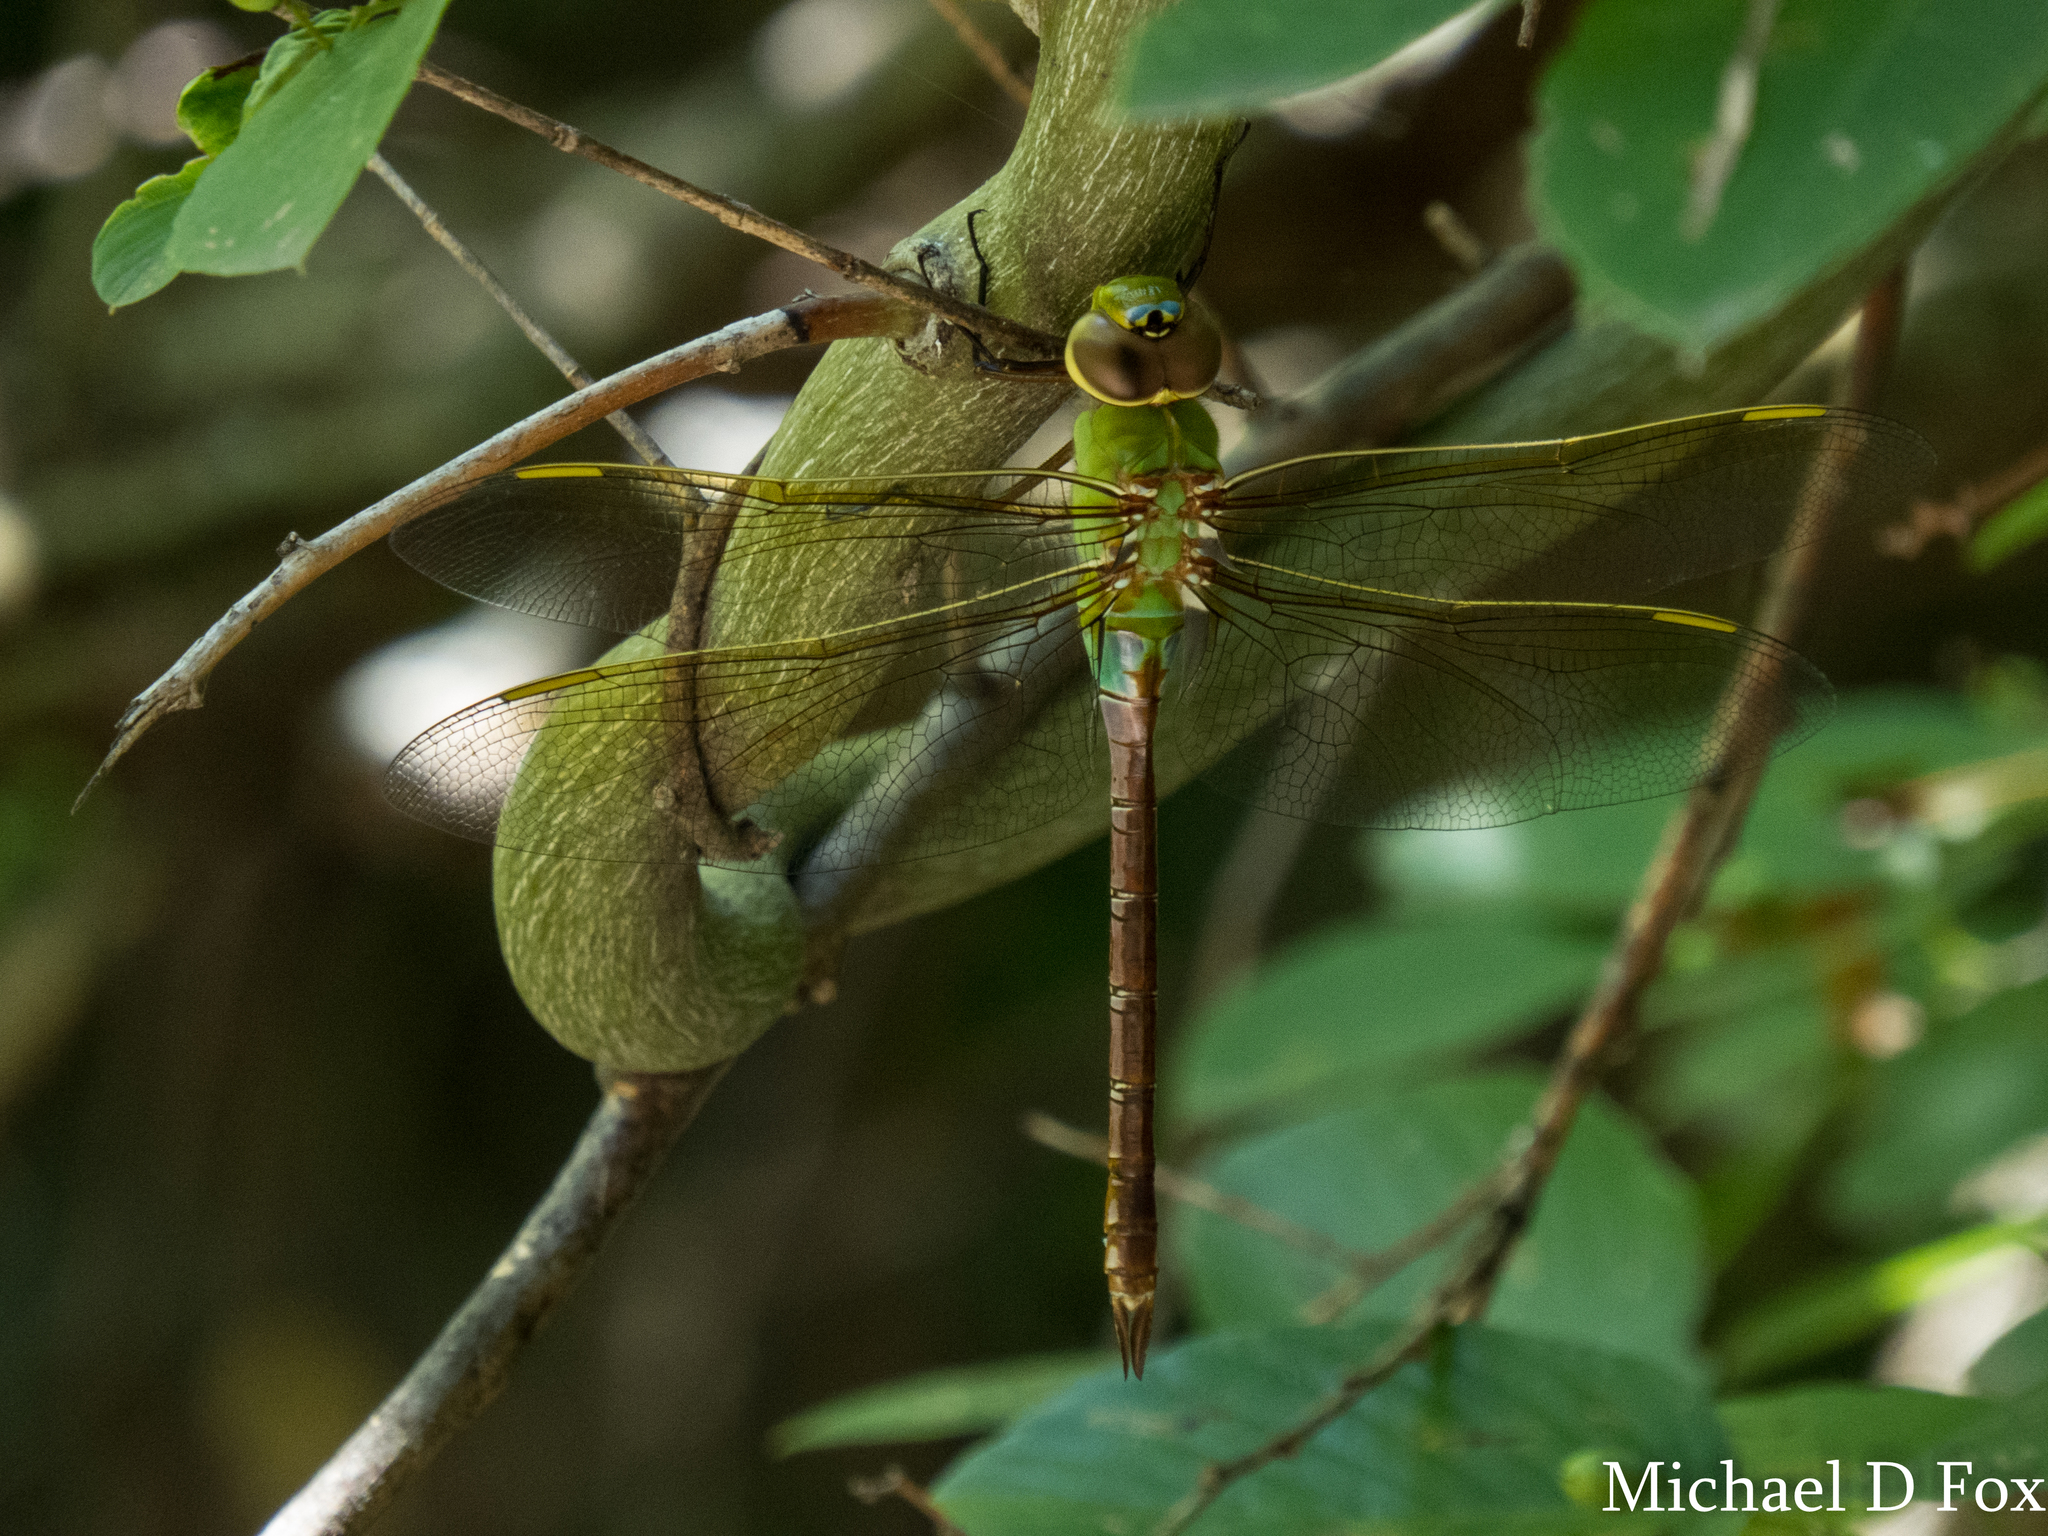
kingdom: Animalia
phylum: Arthropoda
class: Insecta
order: Odonata
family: Aeshnidae
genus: Anax
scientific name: Anax junius
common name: Common green darner
